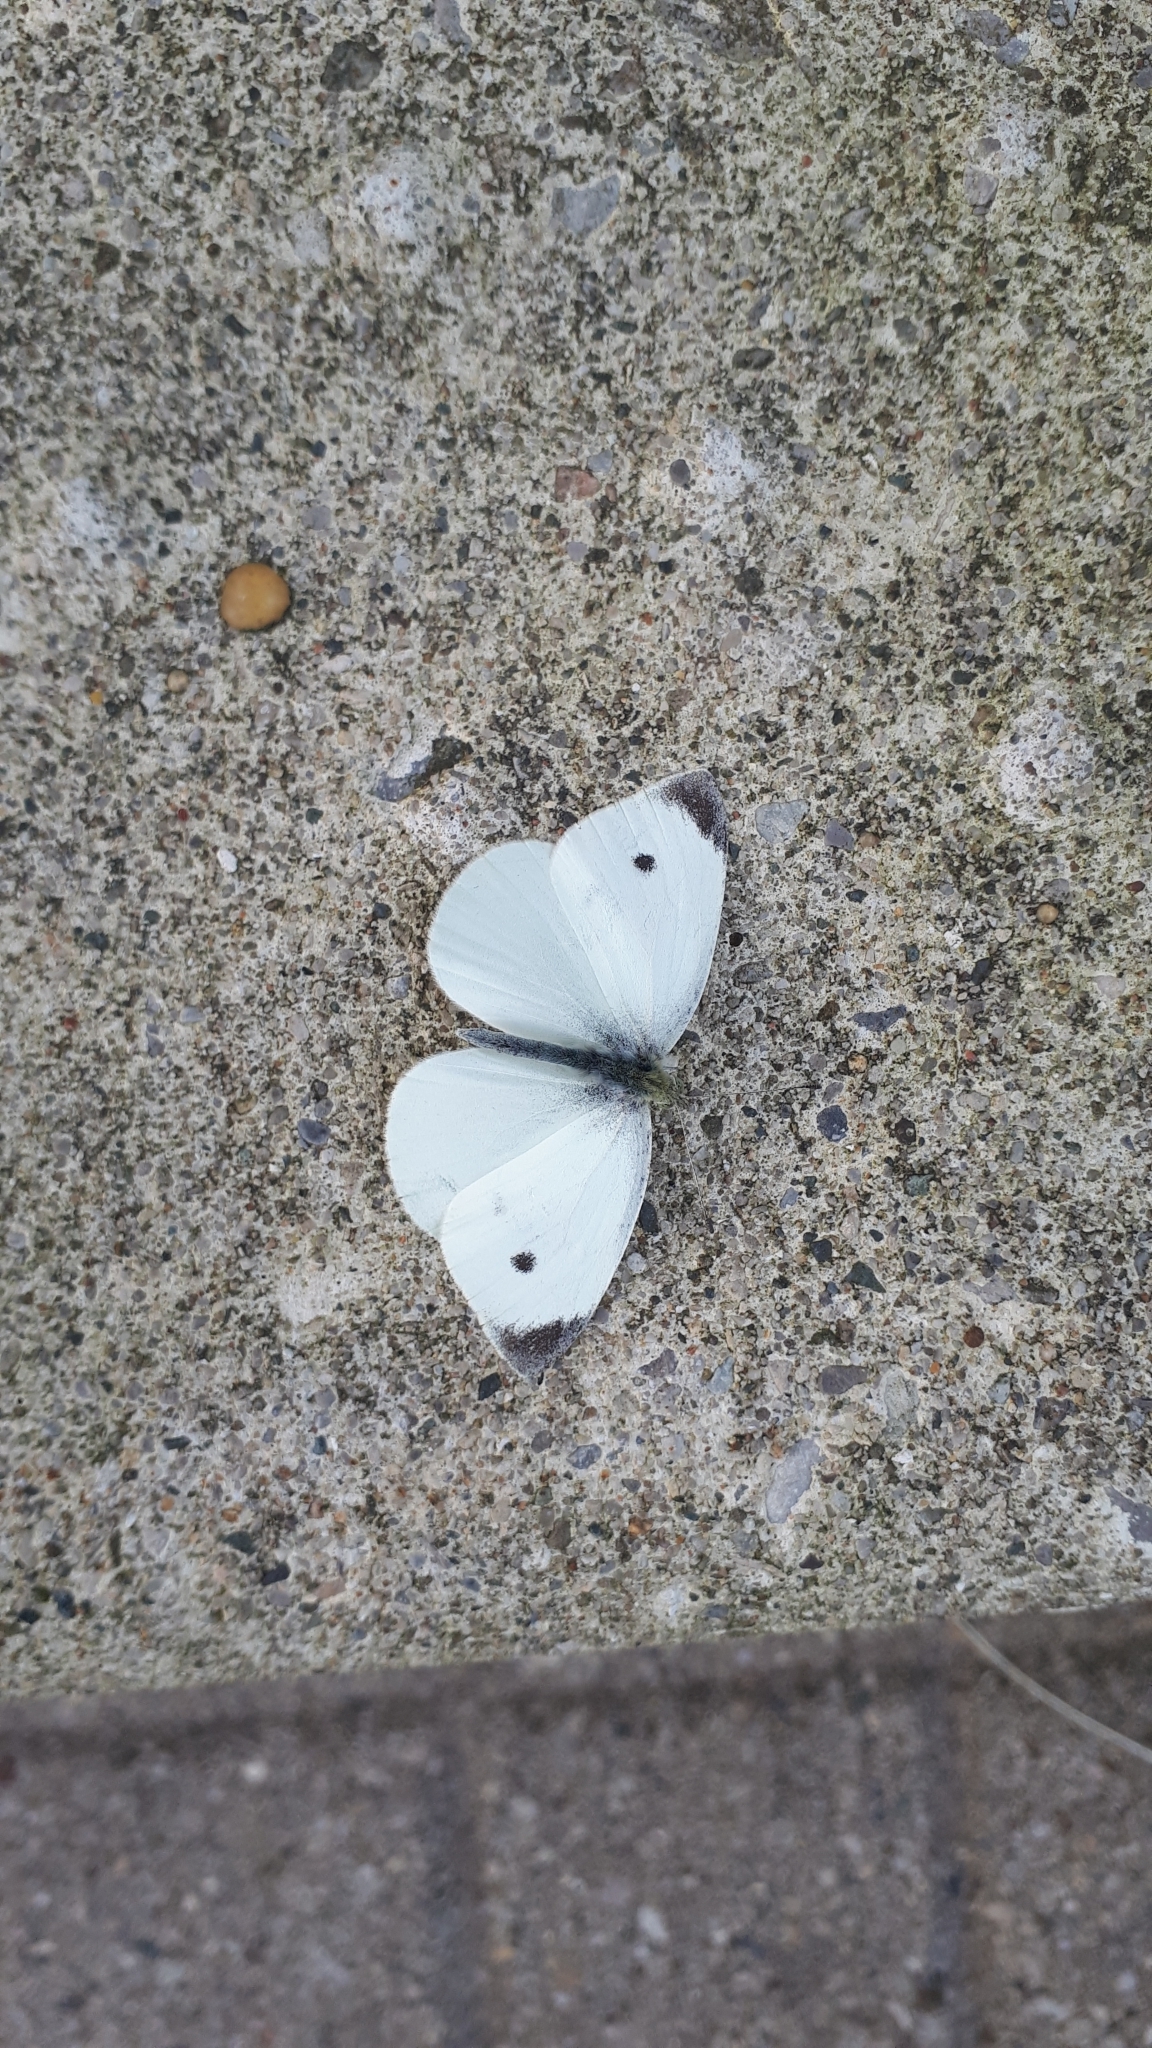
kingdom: Animalia
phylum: Arthropoda
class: Insecta
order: Lepidoptera
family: Pieridae
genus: Pieris
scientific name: Pieris rapae
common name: Small white
